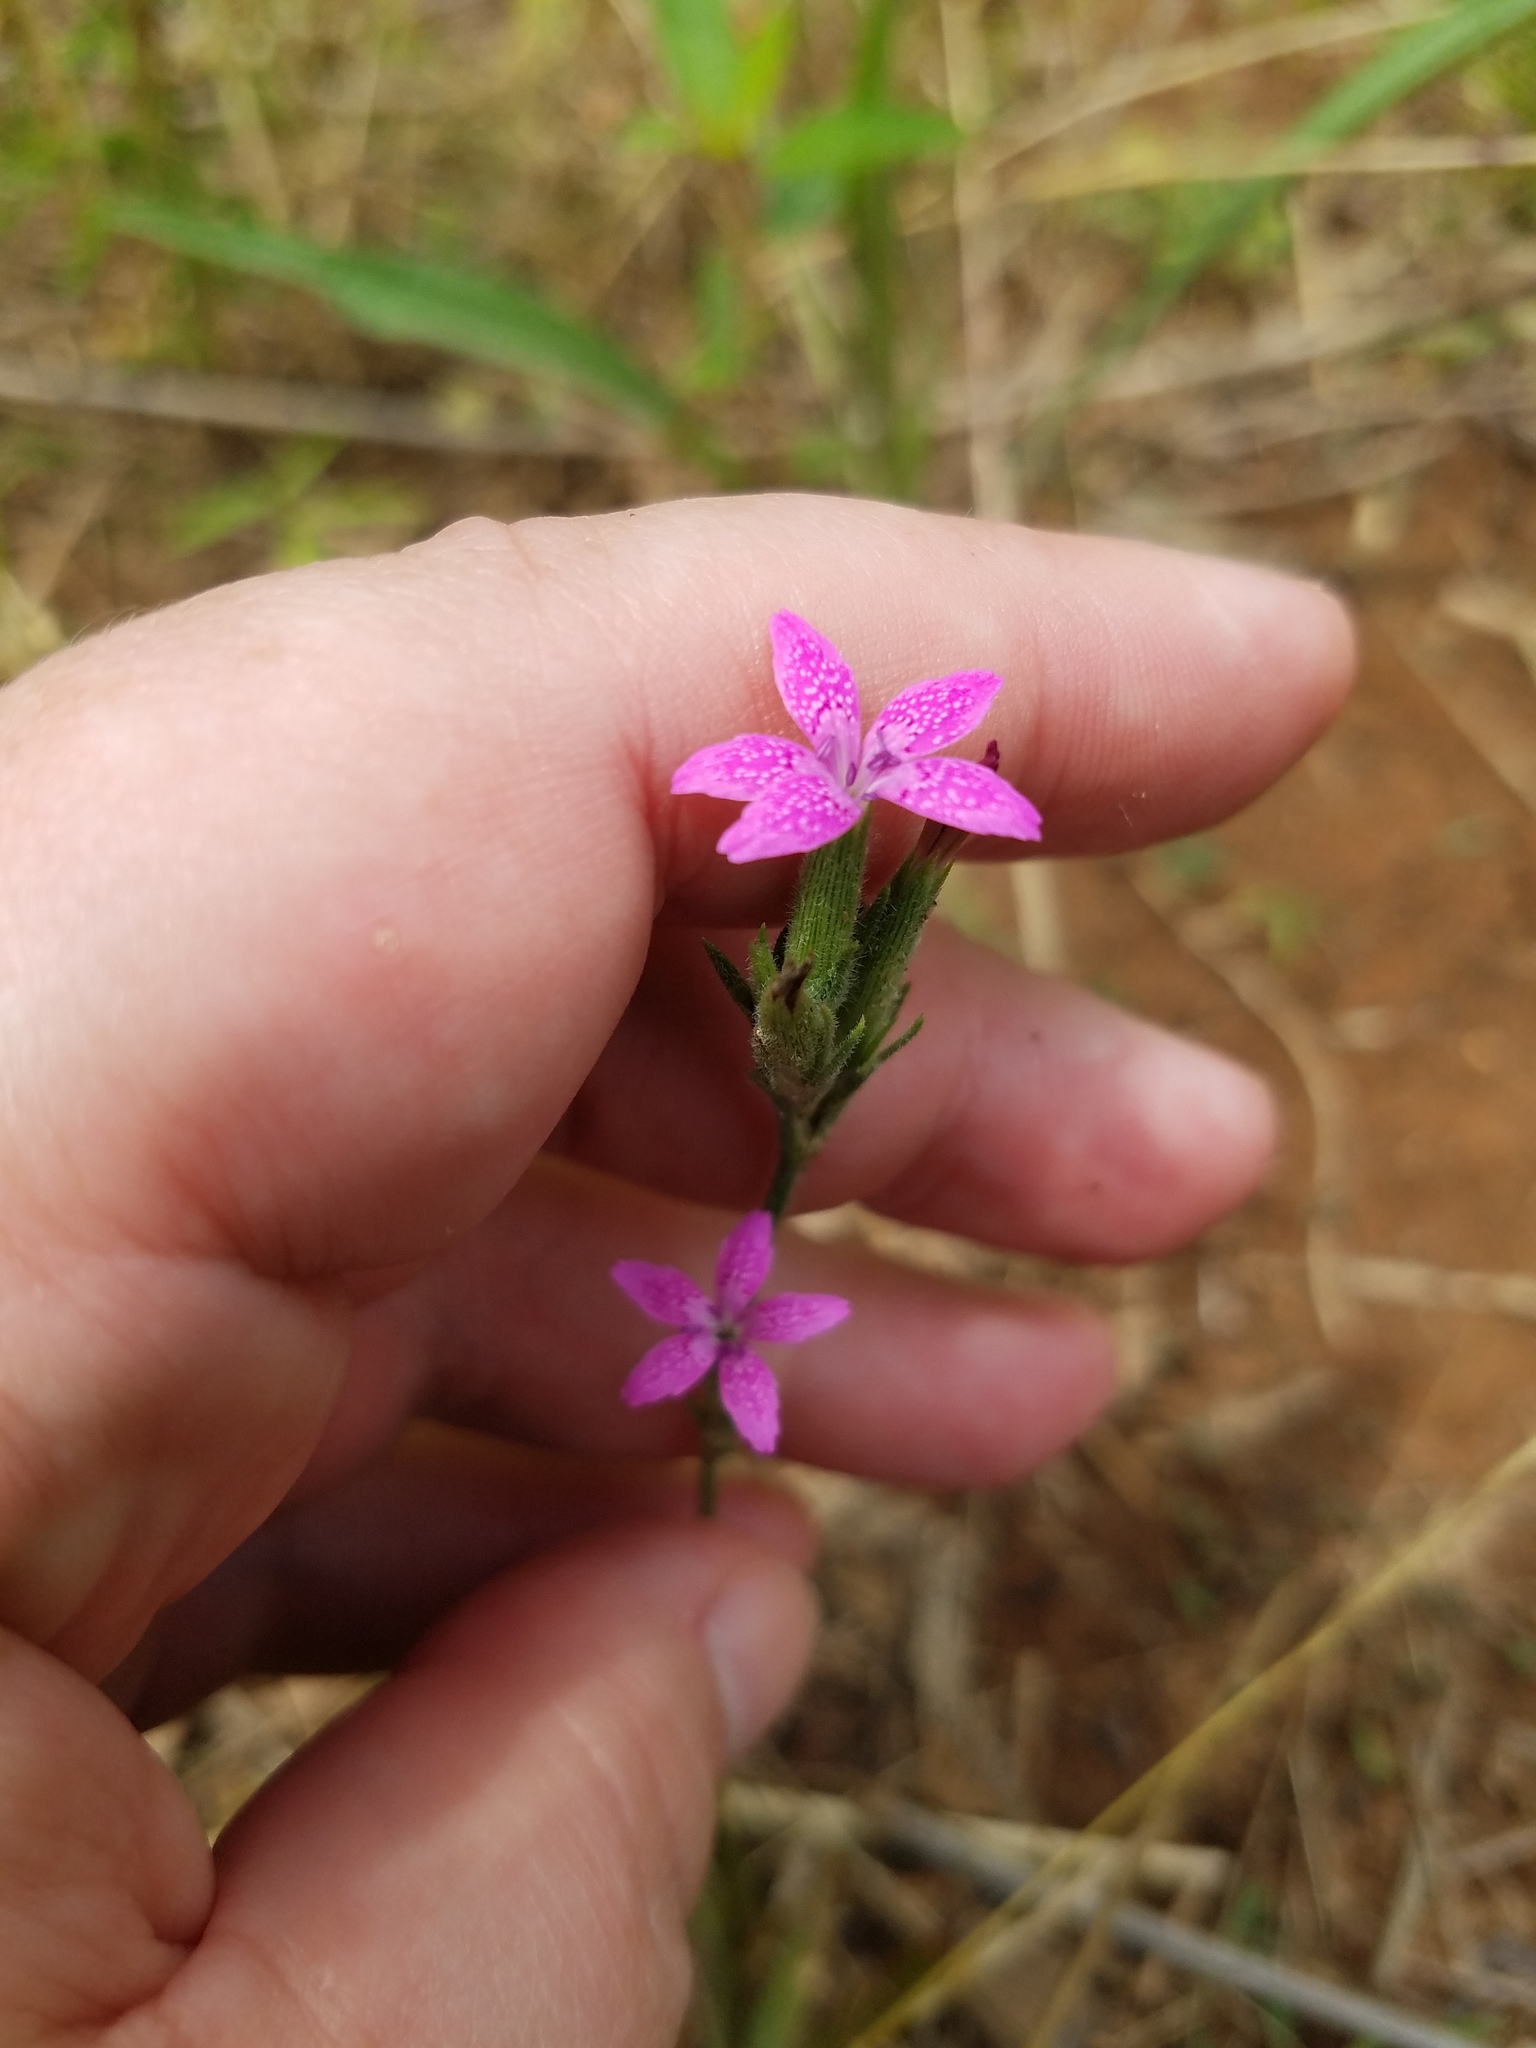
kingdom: Plantae
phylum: Tracheophyta
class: Magnoliopsida
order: Caryophyllales
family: Caryophyllaceae
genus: Dianthus
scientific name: Dianthus armeria
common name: Deptford pink
